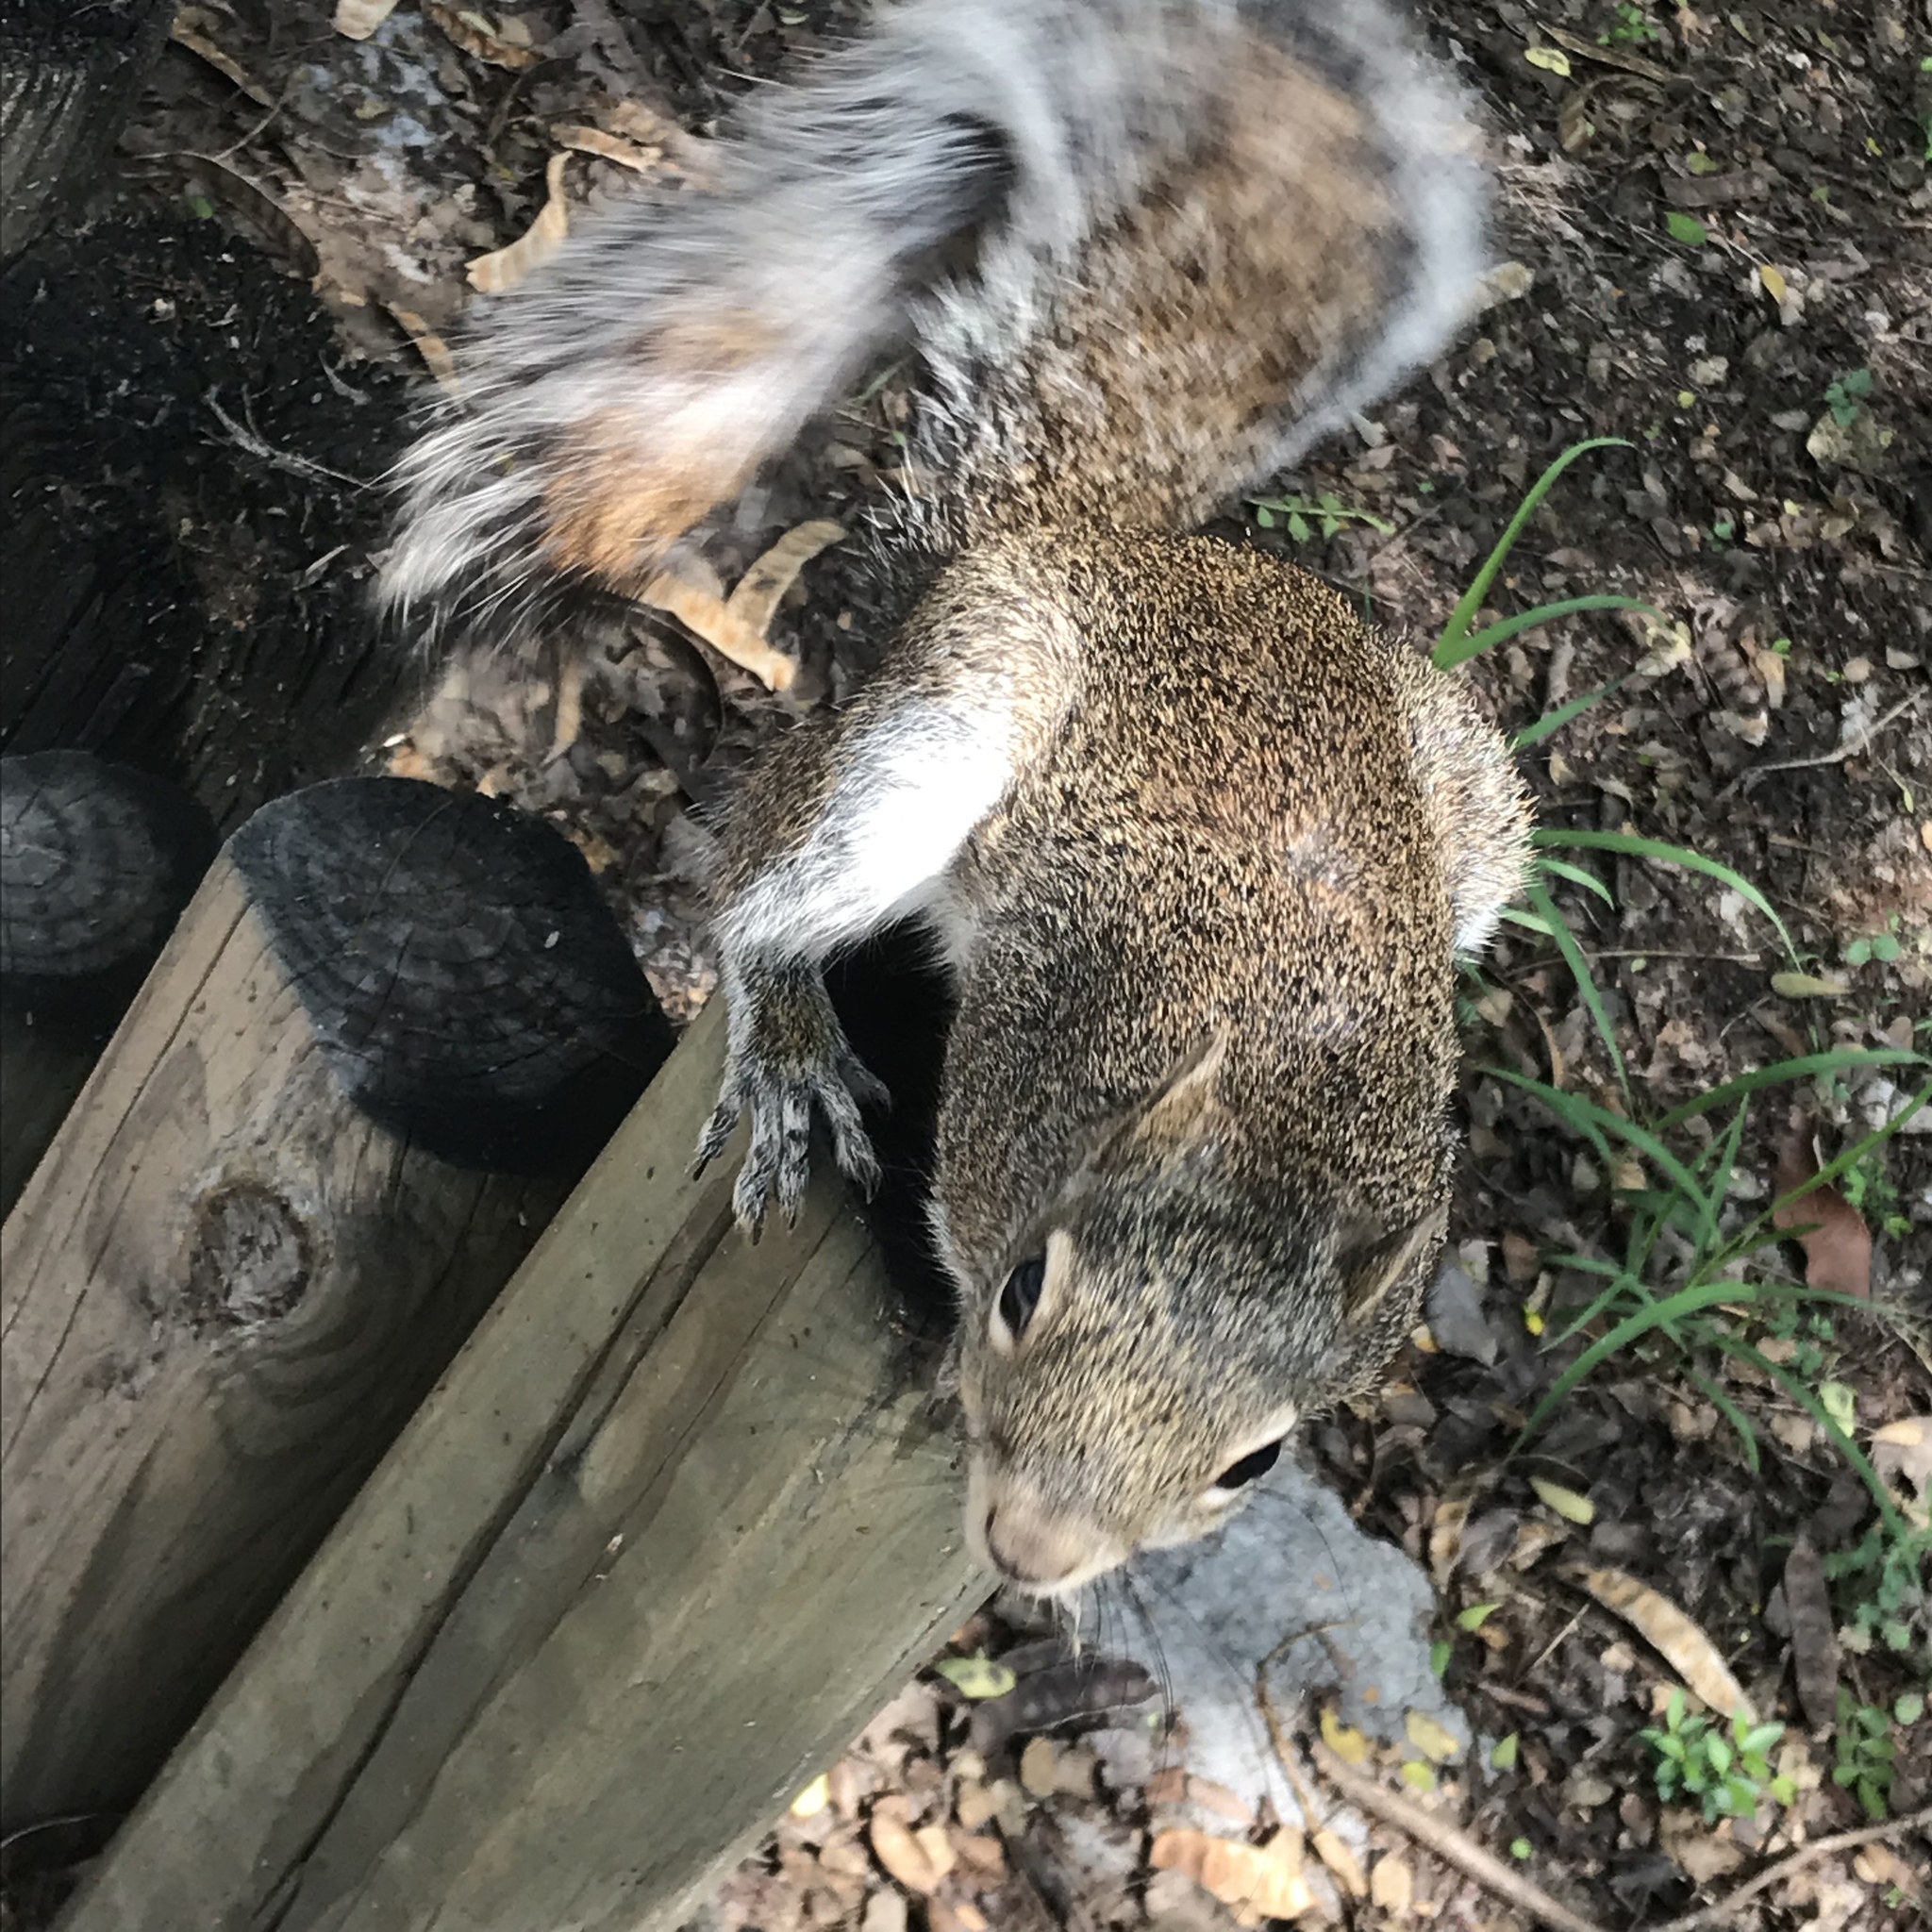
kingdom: Animalia
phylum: Chordata
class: Mammalia
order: Rodentia
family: Sciuridae
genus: Sciurus
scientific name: Sciurus alleni
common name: Allen's squirrel
